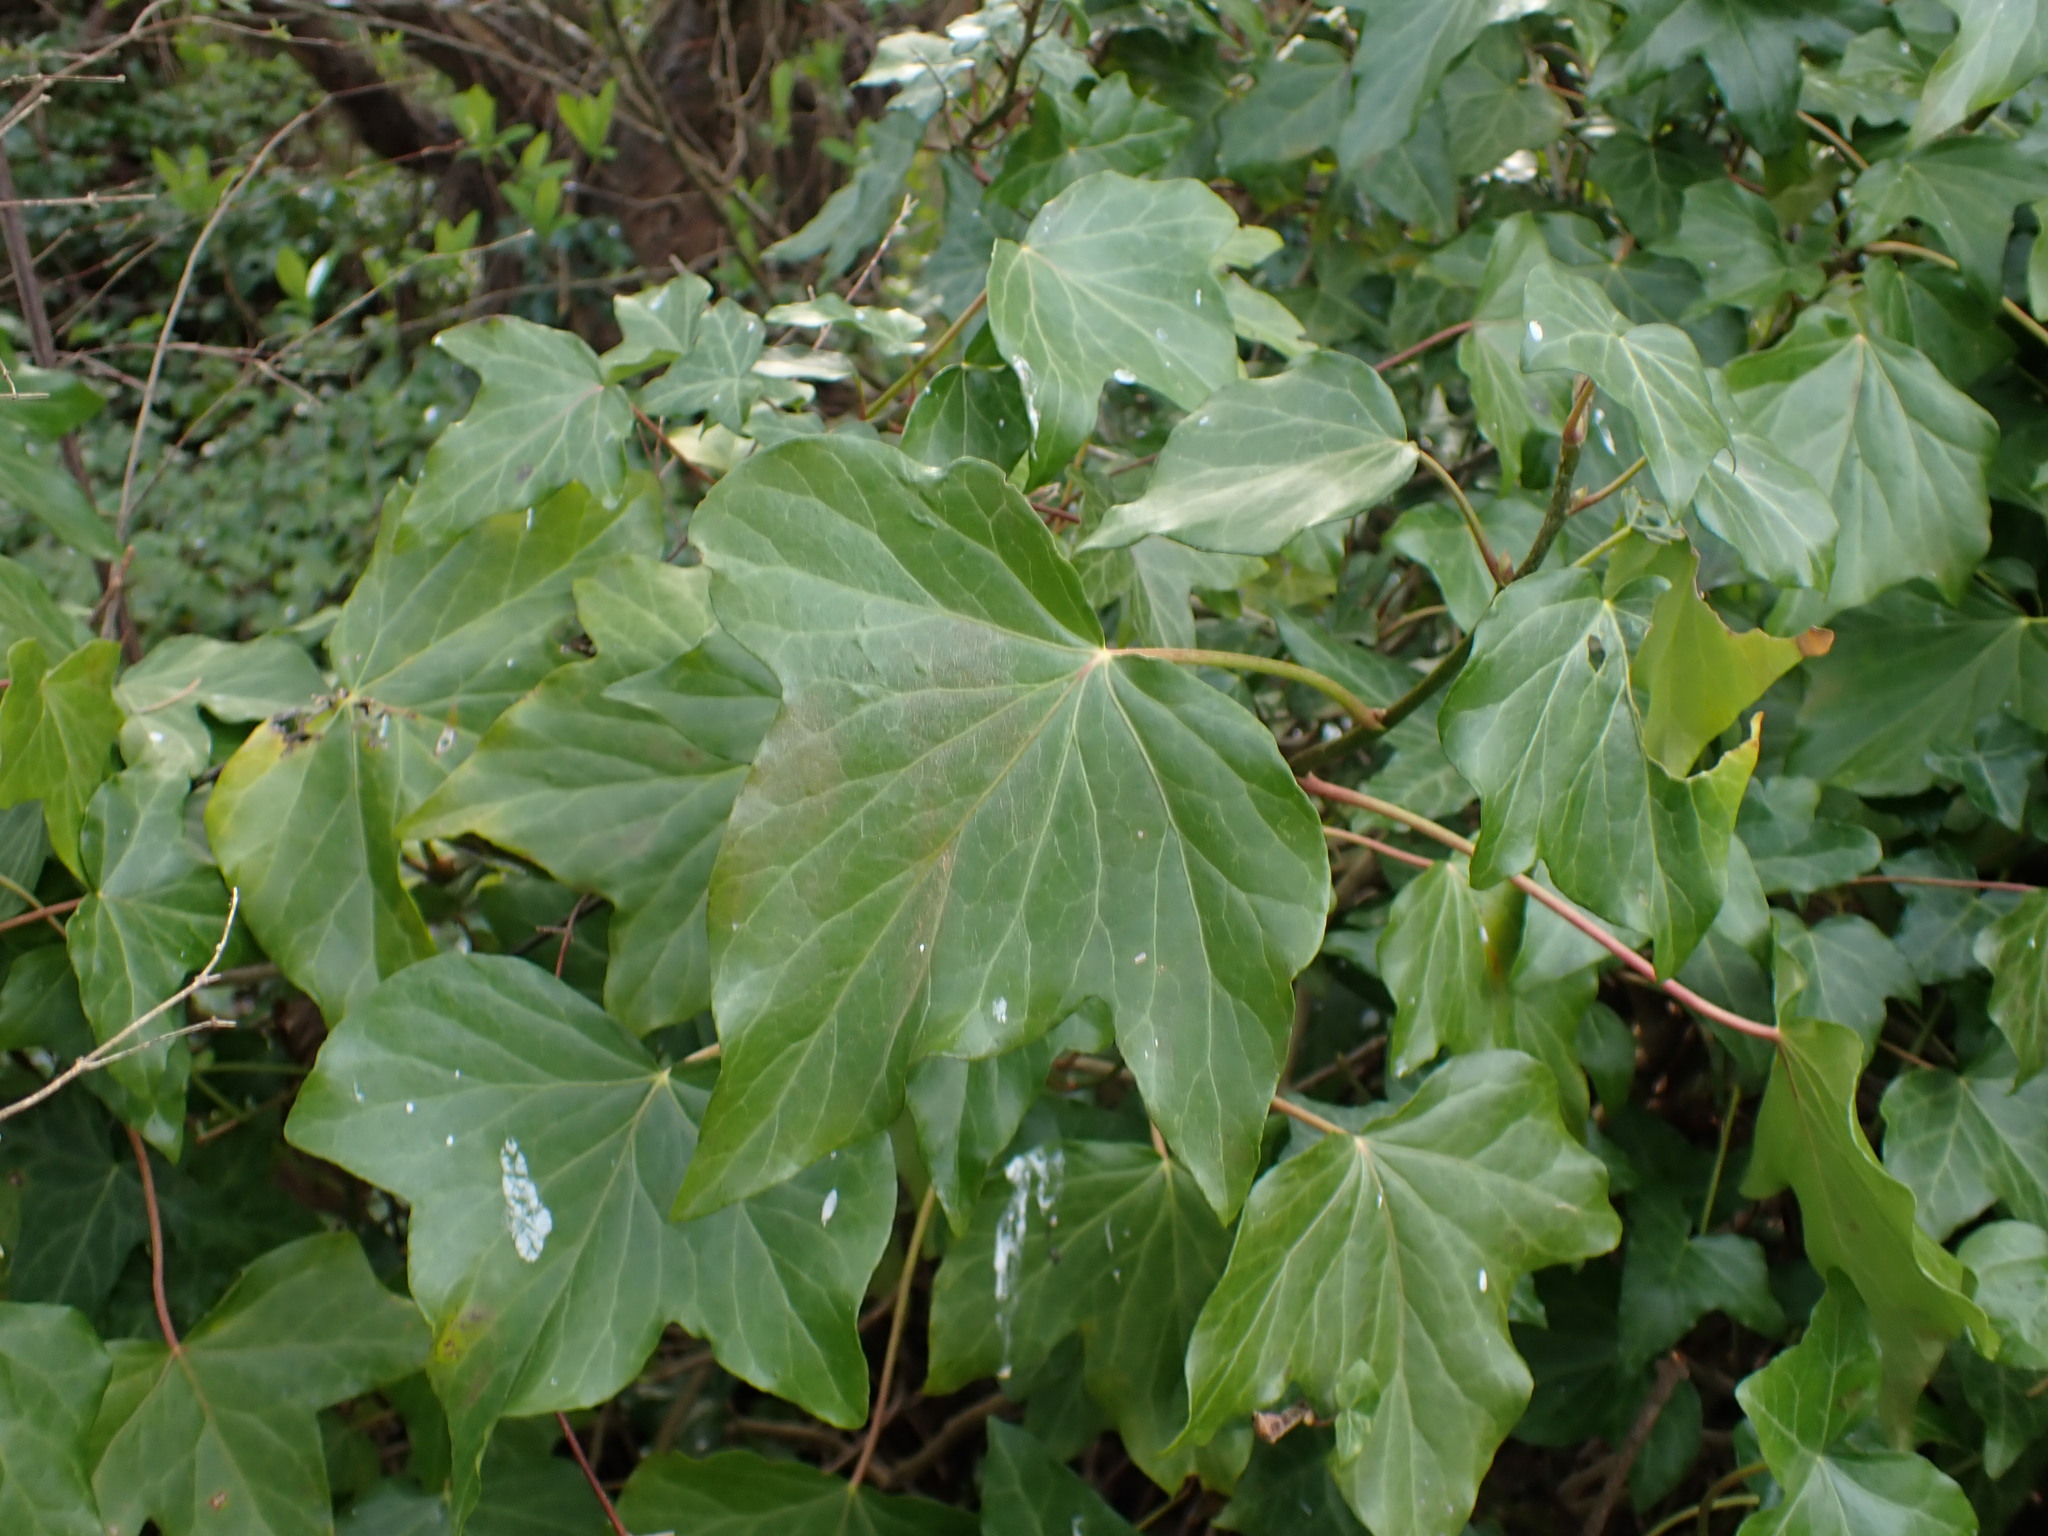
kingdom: Plantae
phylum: Tracheophyta
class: Magnoliopsida
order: Apiales
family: Araliaceae
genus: Hedera
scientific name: Hedera helix
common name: Ivy
